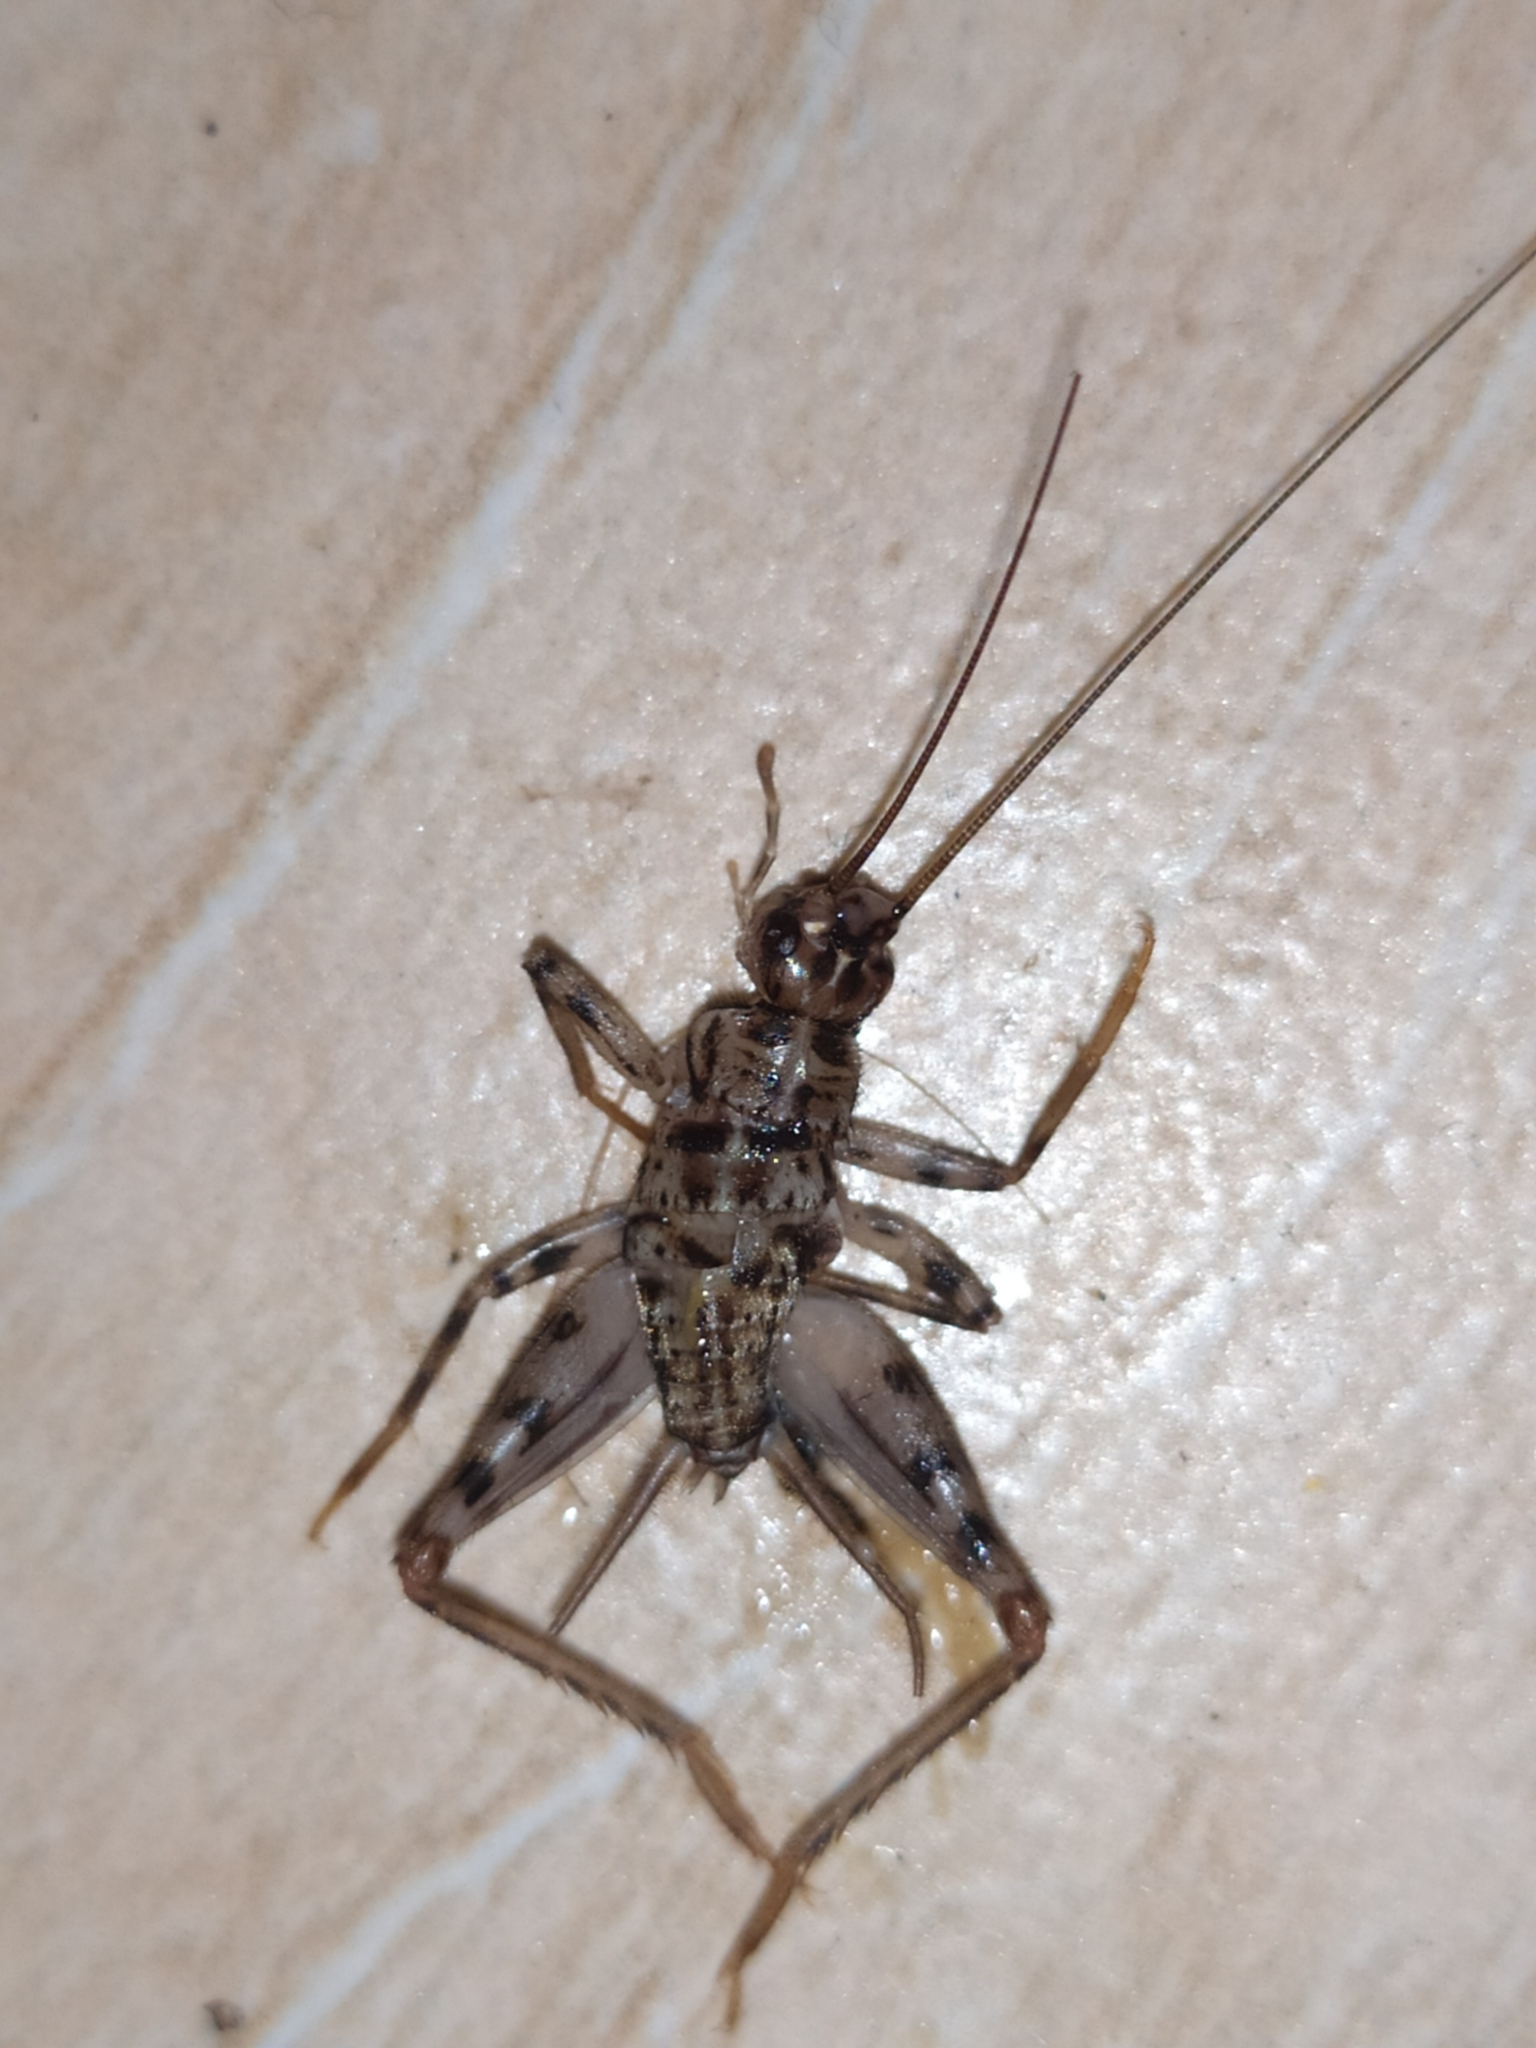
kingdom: Animalia
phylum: Arthropoda
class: Insecta
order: Orthoptera
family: Gryllidae
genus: Gryllomorpha
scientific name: Gryllomorpha dalmatina
